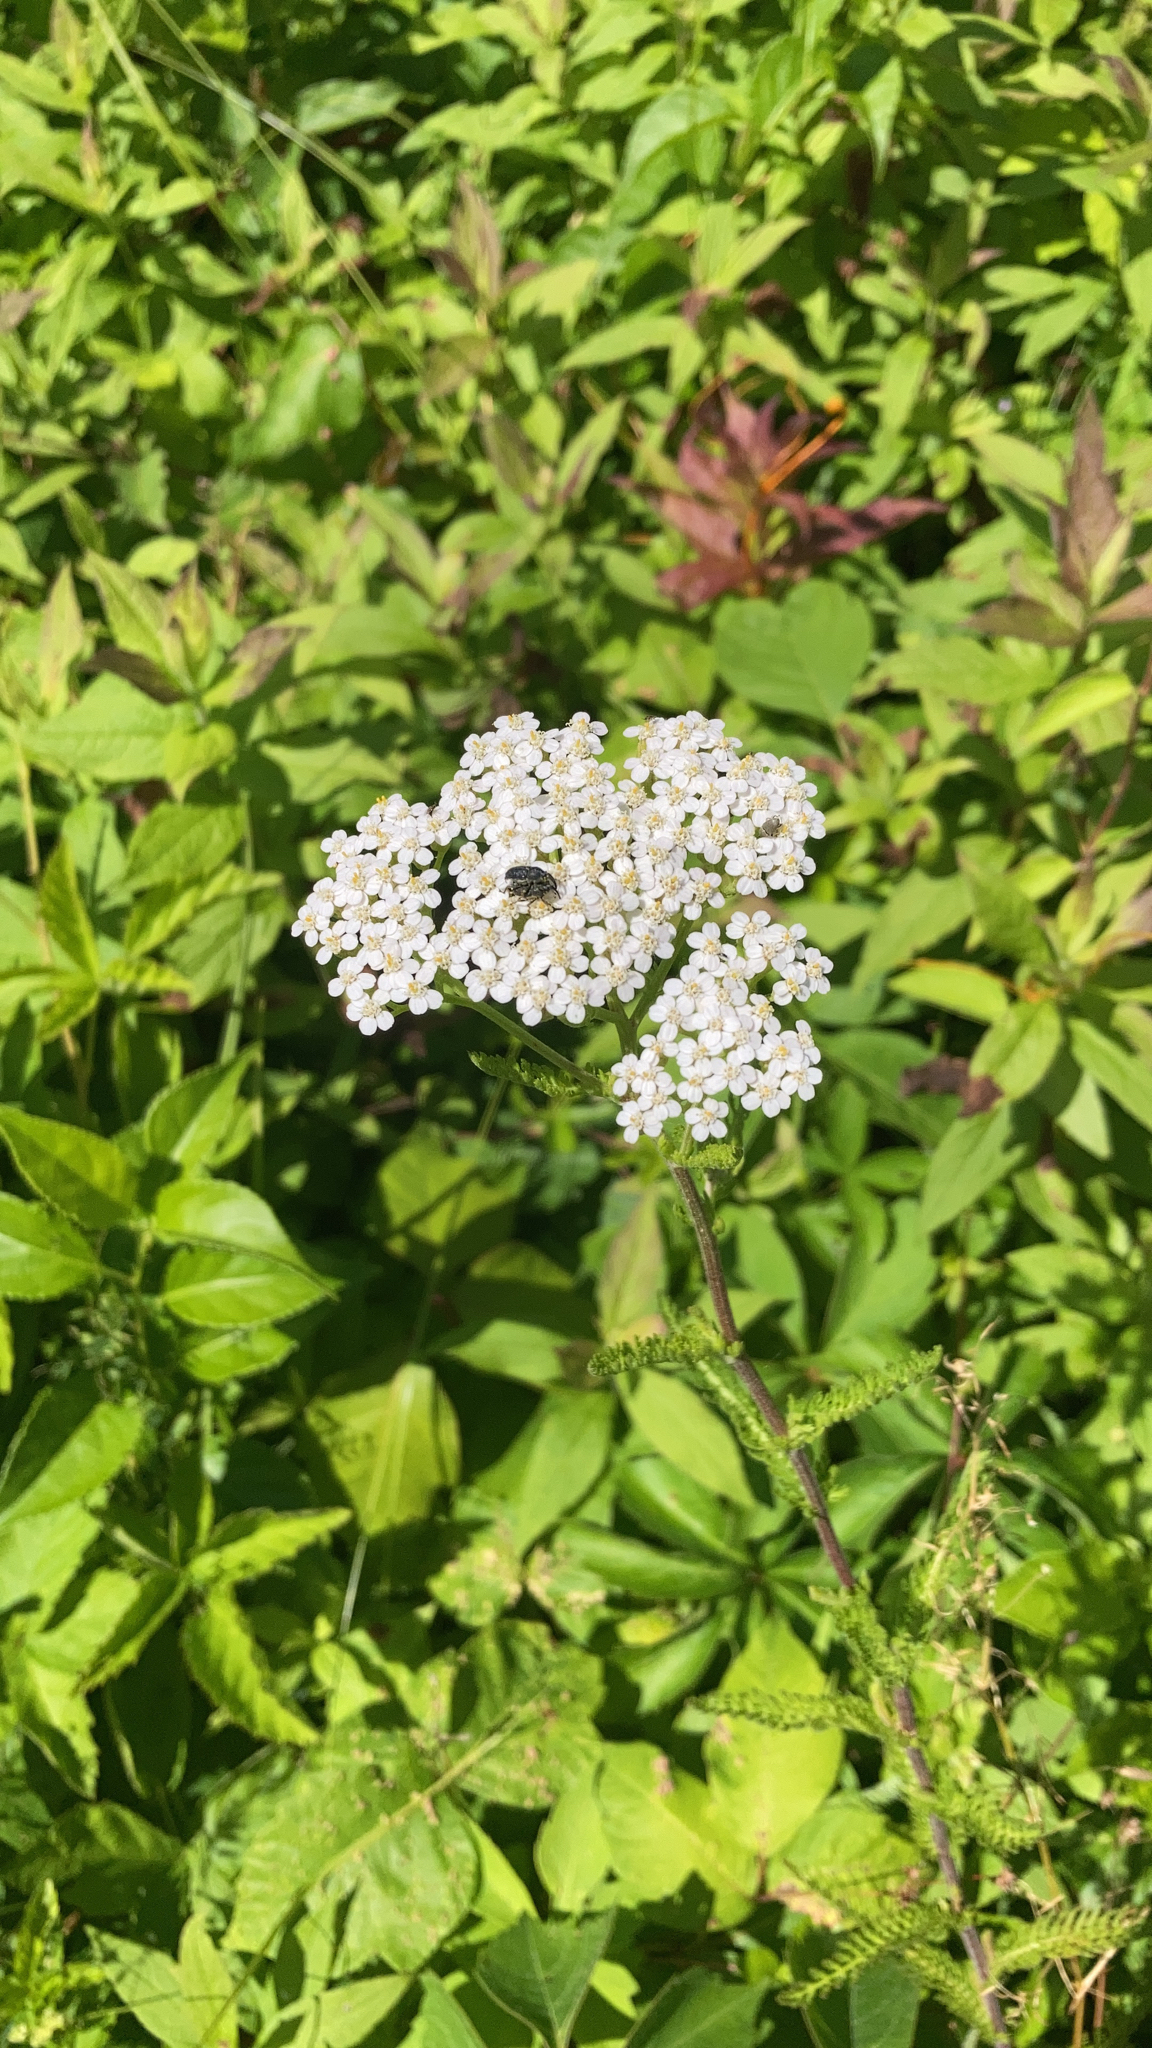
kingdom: Plantae
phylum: Tracheophyta
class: Magnoliopsida
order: Asterales
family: Asteraceae
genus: Achillea
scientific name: Achillea millefolium
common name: Yarrow
